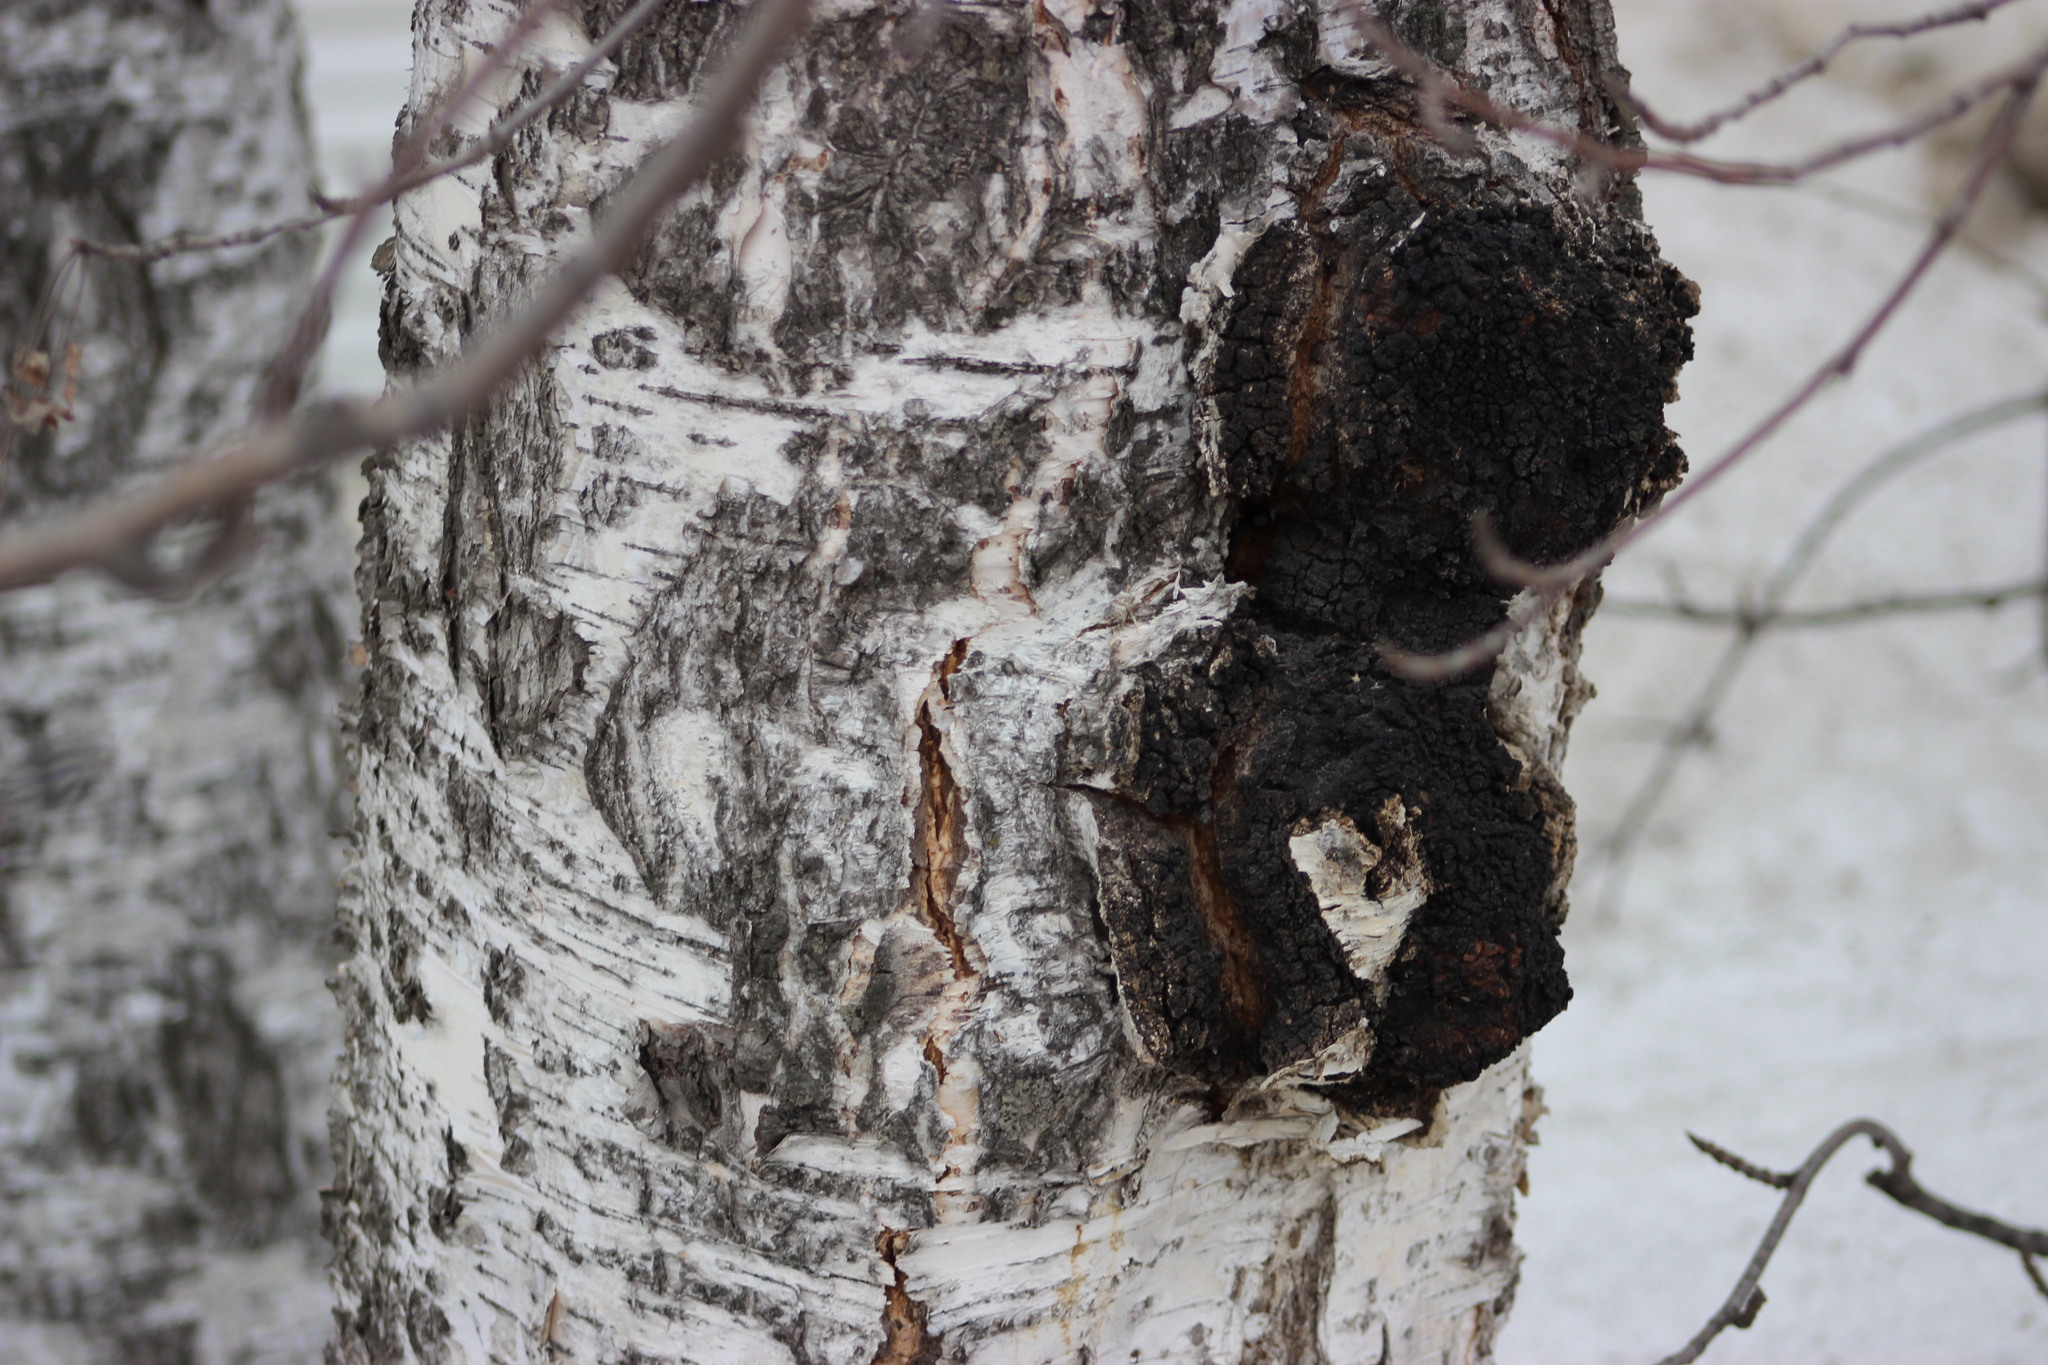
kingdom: Fungi
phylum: Basidiomycota
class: Agaricomycetes
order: Hymenochaetales
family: Hymenochaetaceae
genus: Inonotus
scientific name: Inonotus obliquus
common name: Chaga
